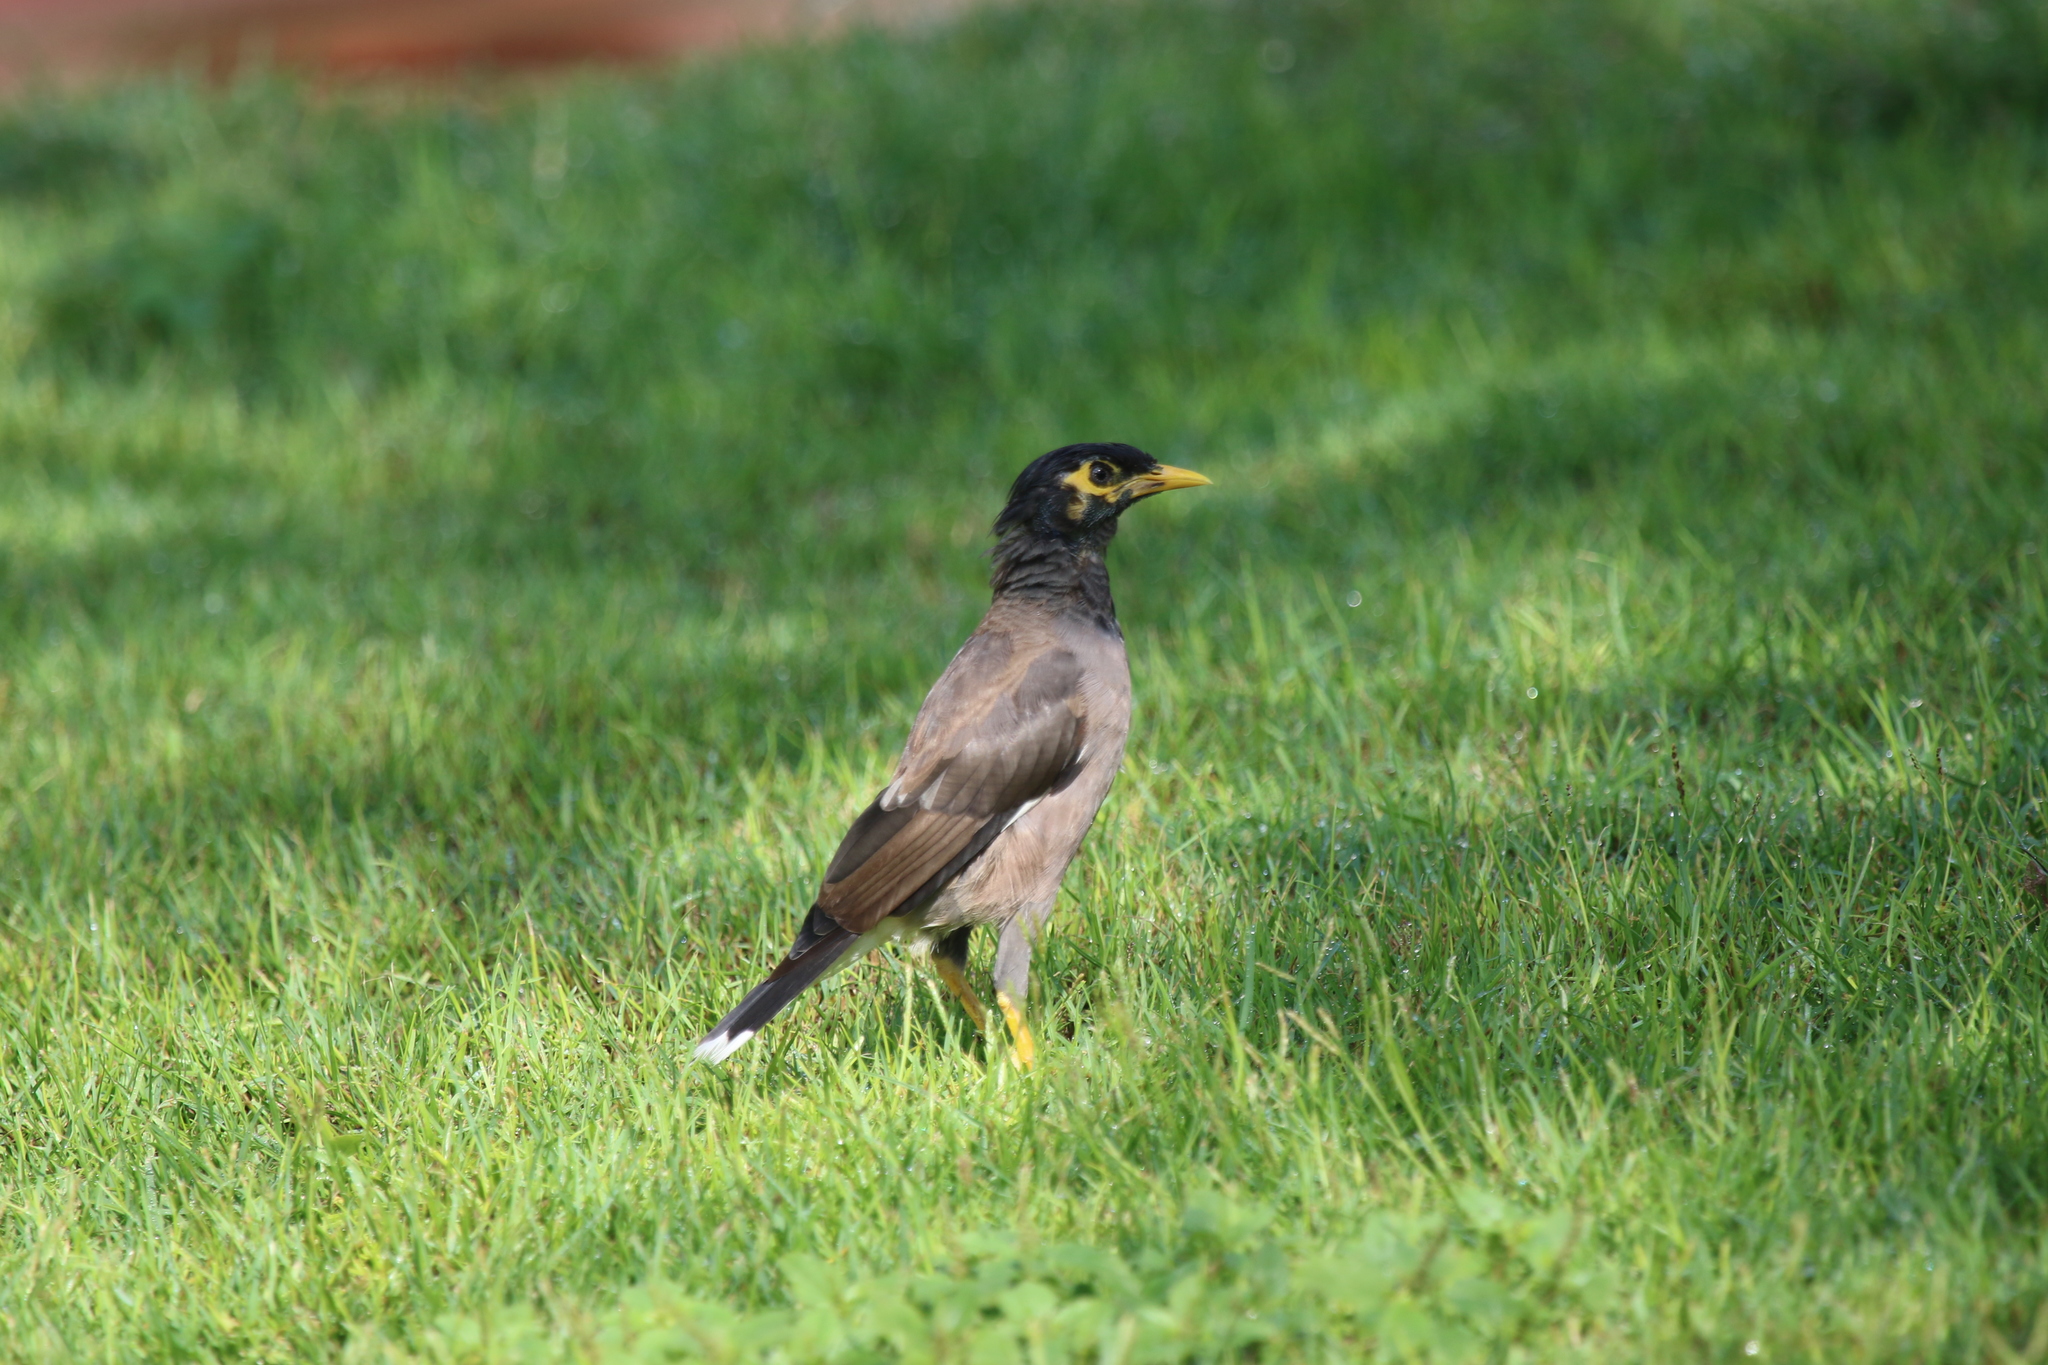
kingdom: Animalia
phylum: Chordata
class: Aves
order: Passeriformes
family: Sturnidae
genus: Acridotheres
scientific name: Acridotheres tristis
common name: Common myna
